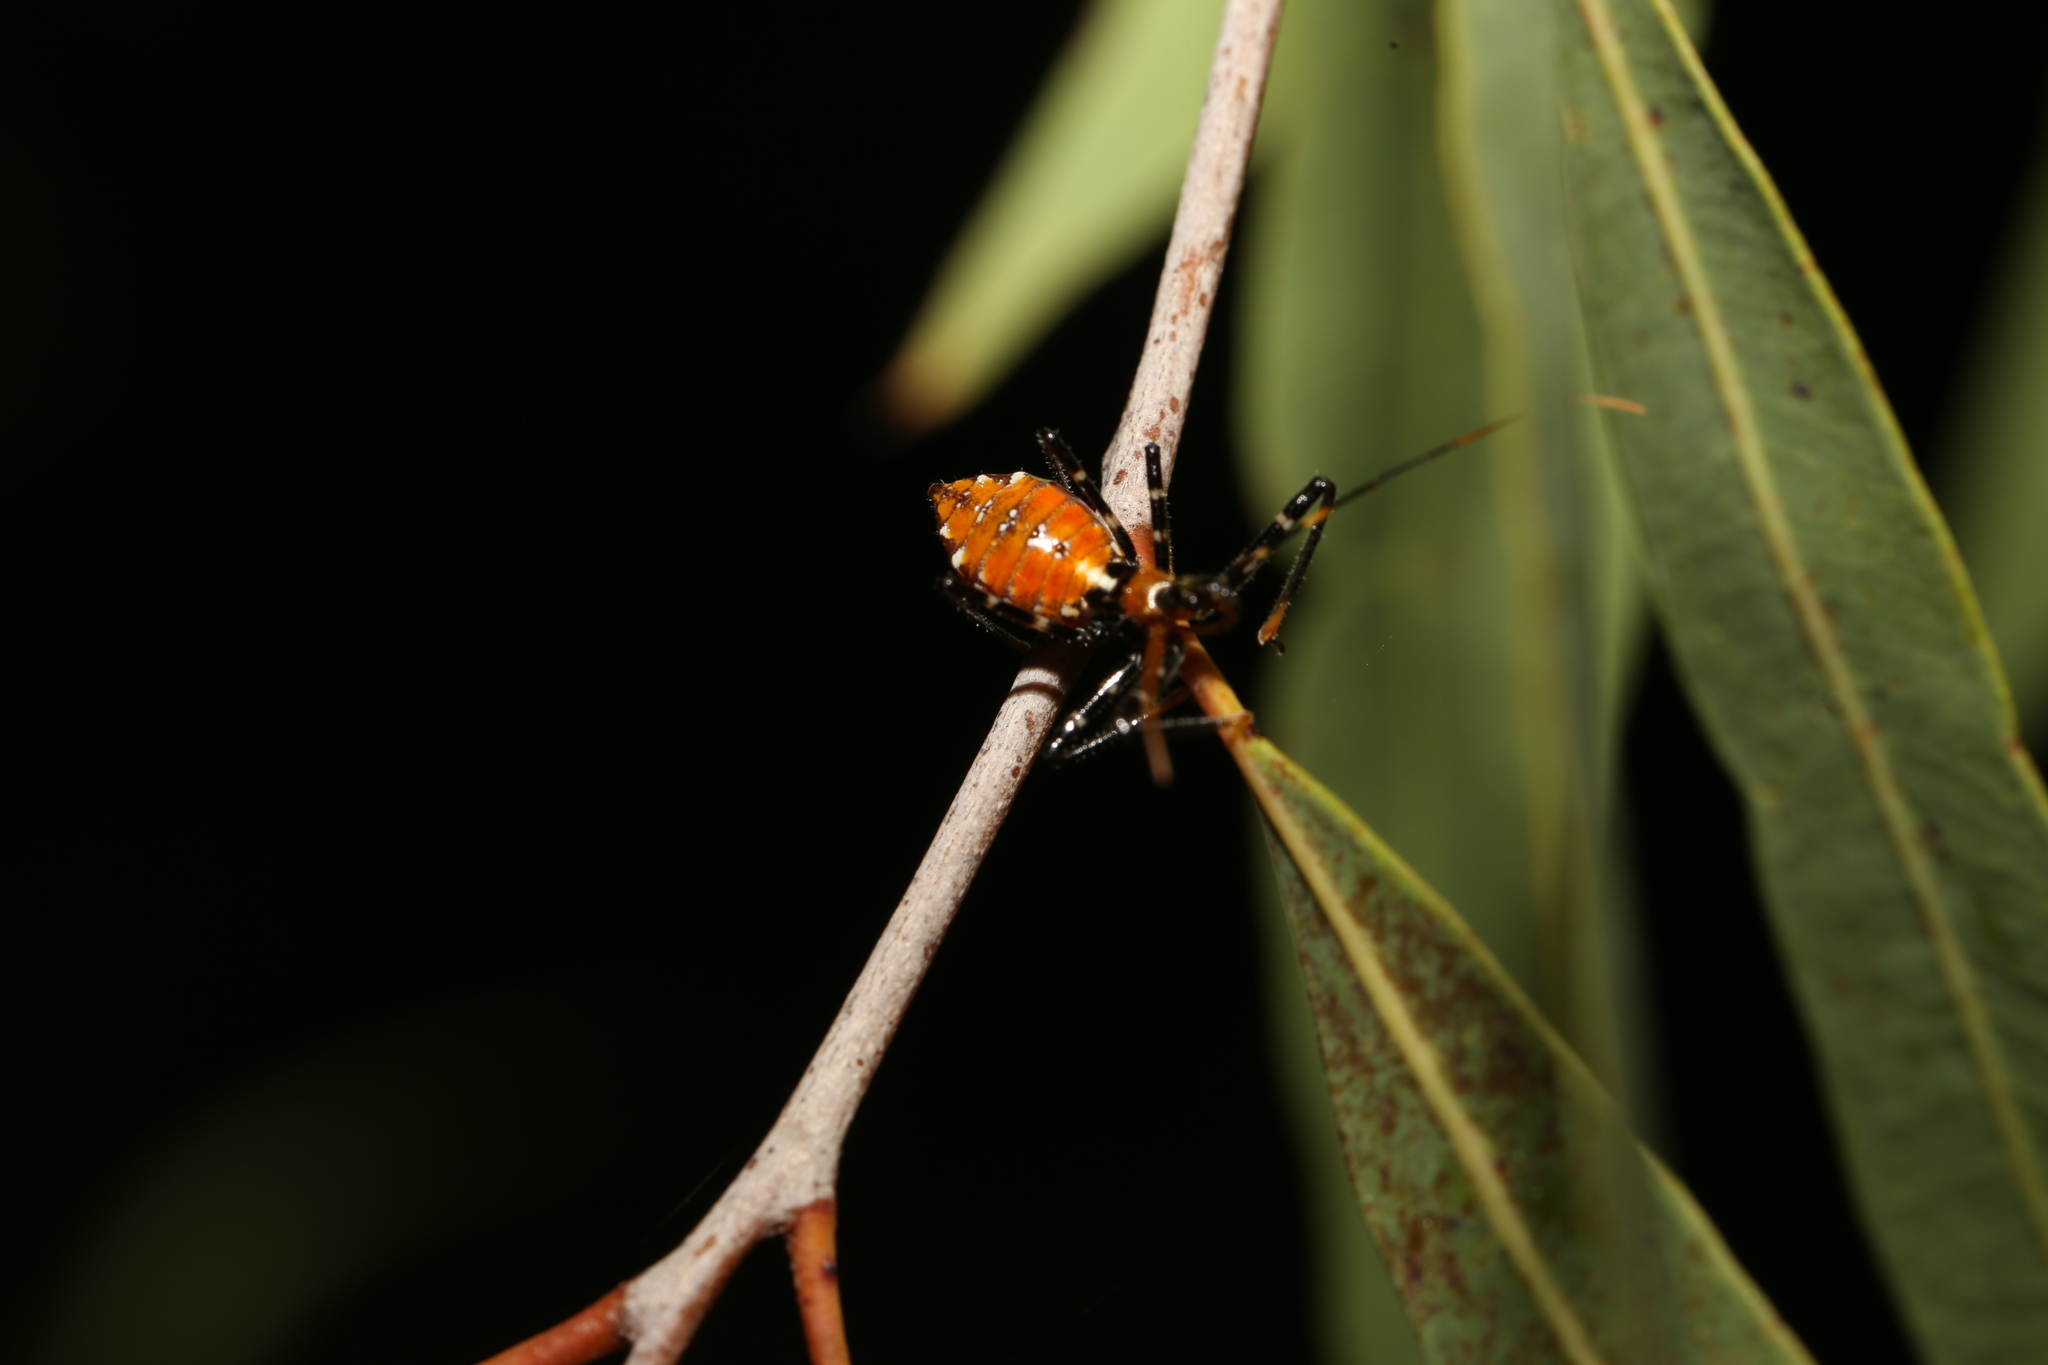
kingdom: Animalia
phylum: Arthropoda
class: Insecta
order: Hemiptera
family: Reduviidae
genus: Pristhesancus
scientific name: Pristhesancus plagipennis
